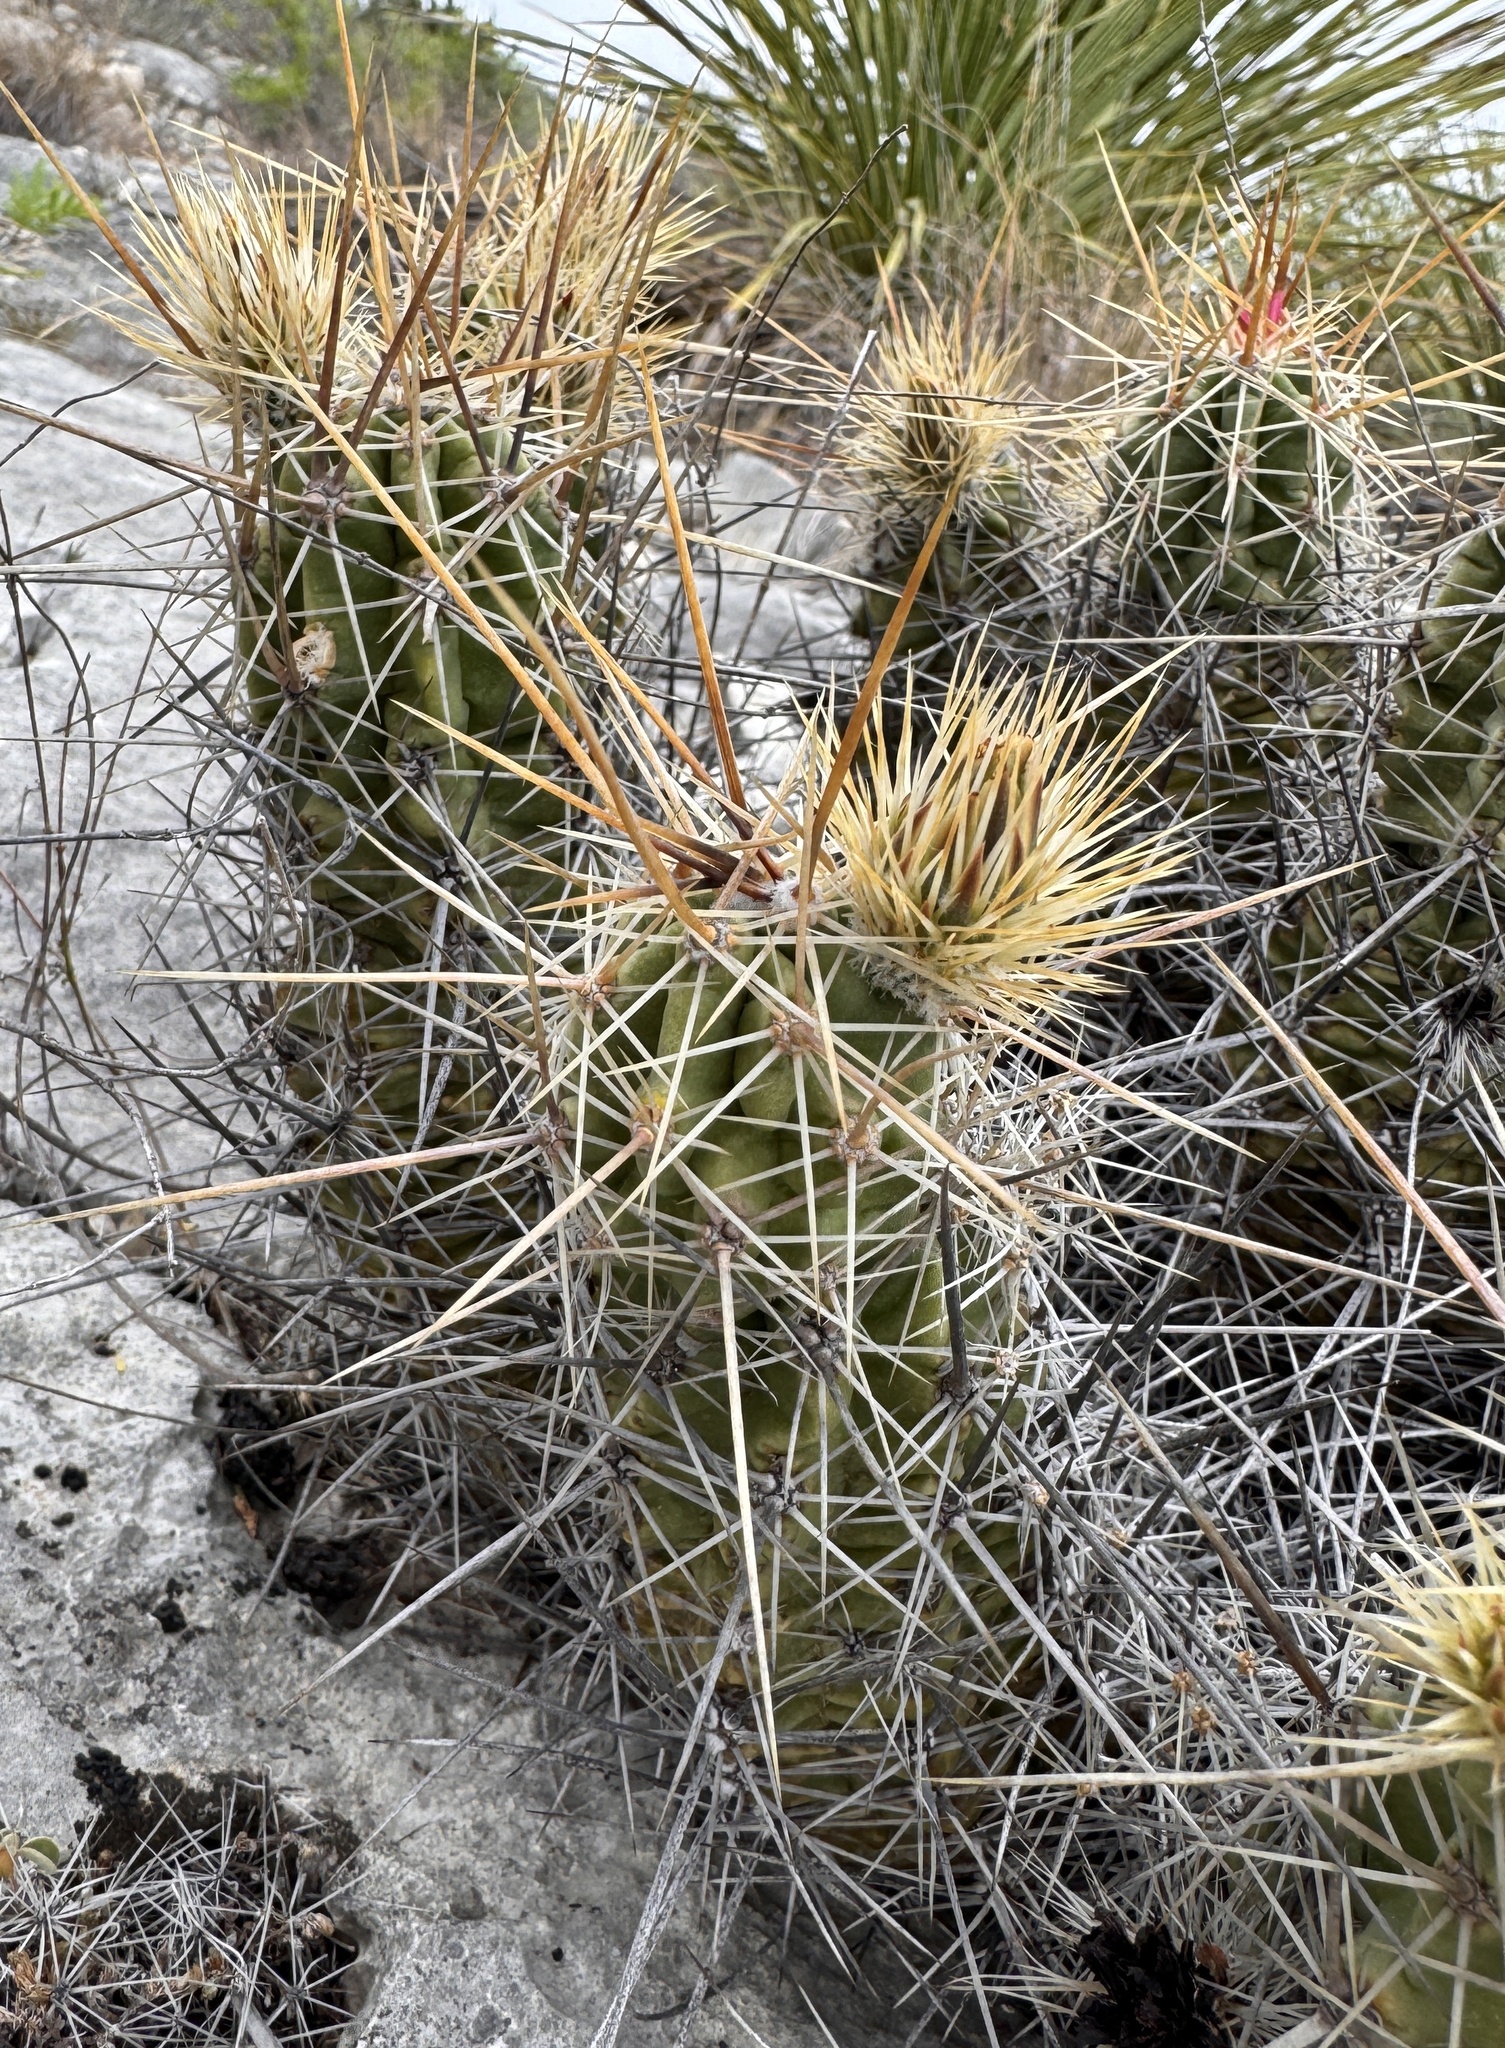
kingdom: Plantae
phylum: Tracheophyta
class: Magnoliopsida
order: Caryophyllales
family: Cactaceae
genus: Echinocereus
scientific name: Echinocereus enneacanthus
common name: Pitaya
